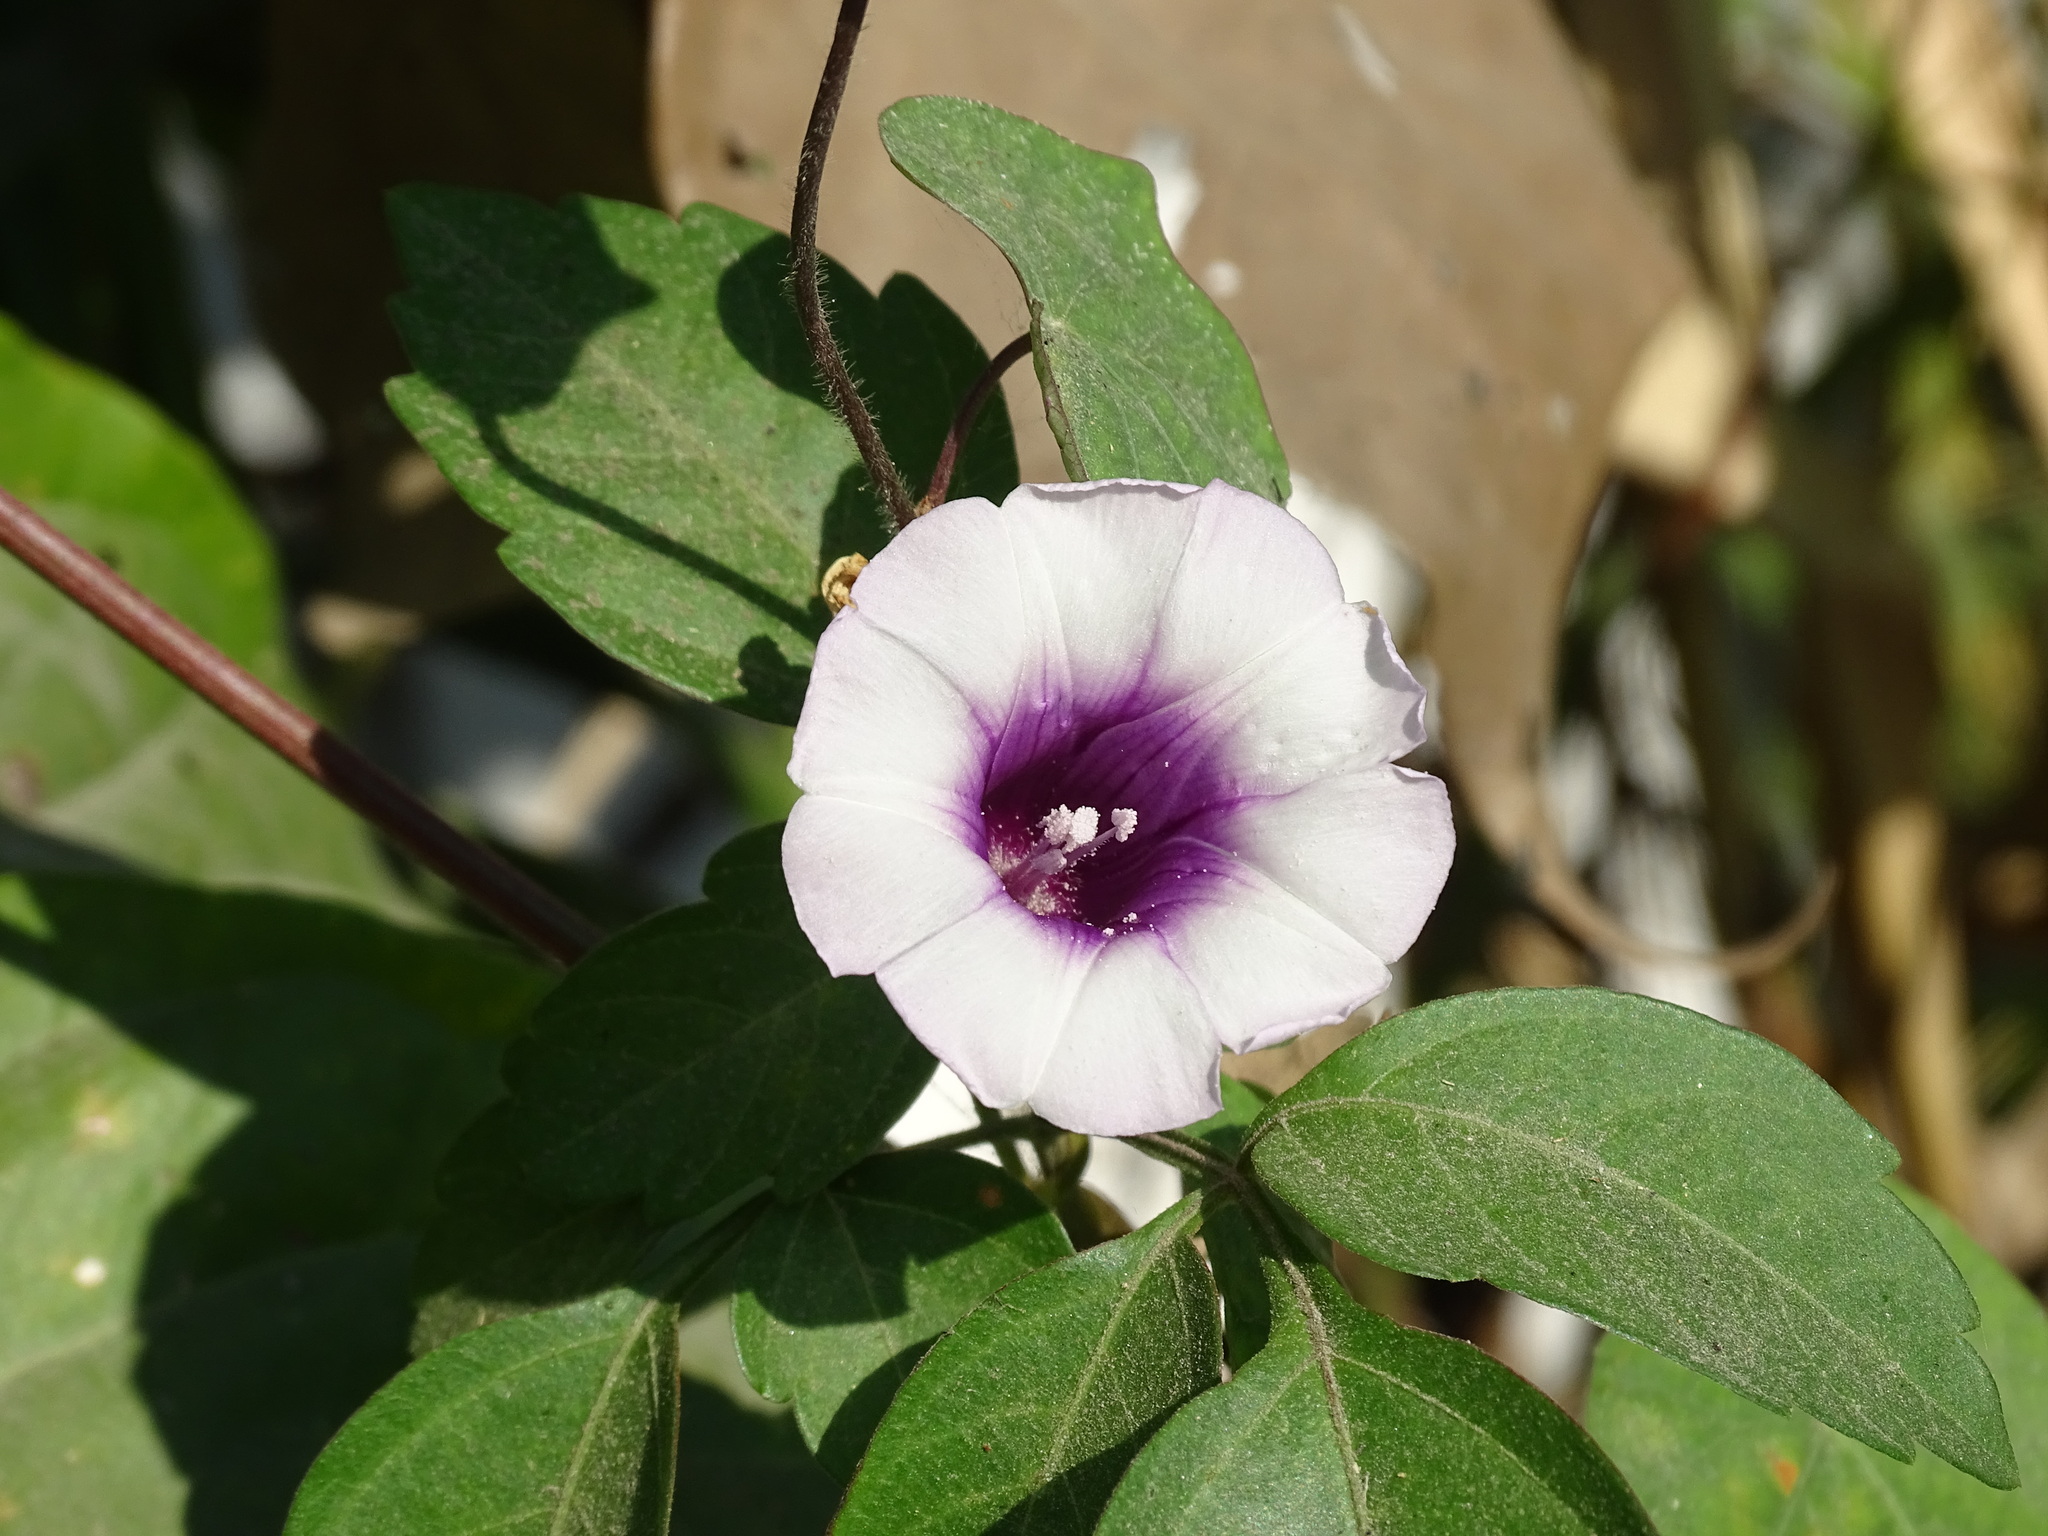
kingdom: Plantae
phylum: Tracheophyta
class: Magnoliopsida
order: Solanales
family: Convolvulaceae
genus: Ipomoea
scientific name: Ipomoea batatas
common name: Sweet-potato
